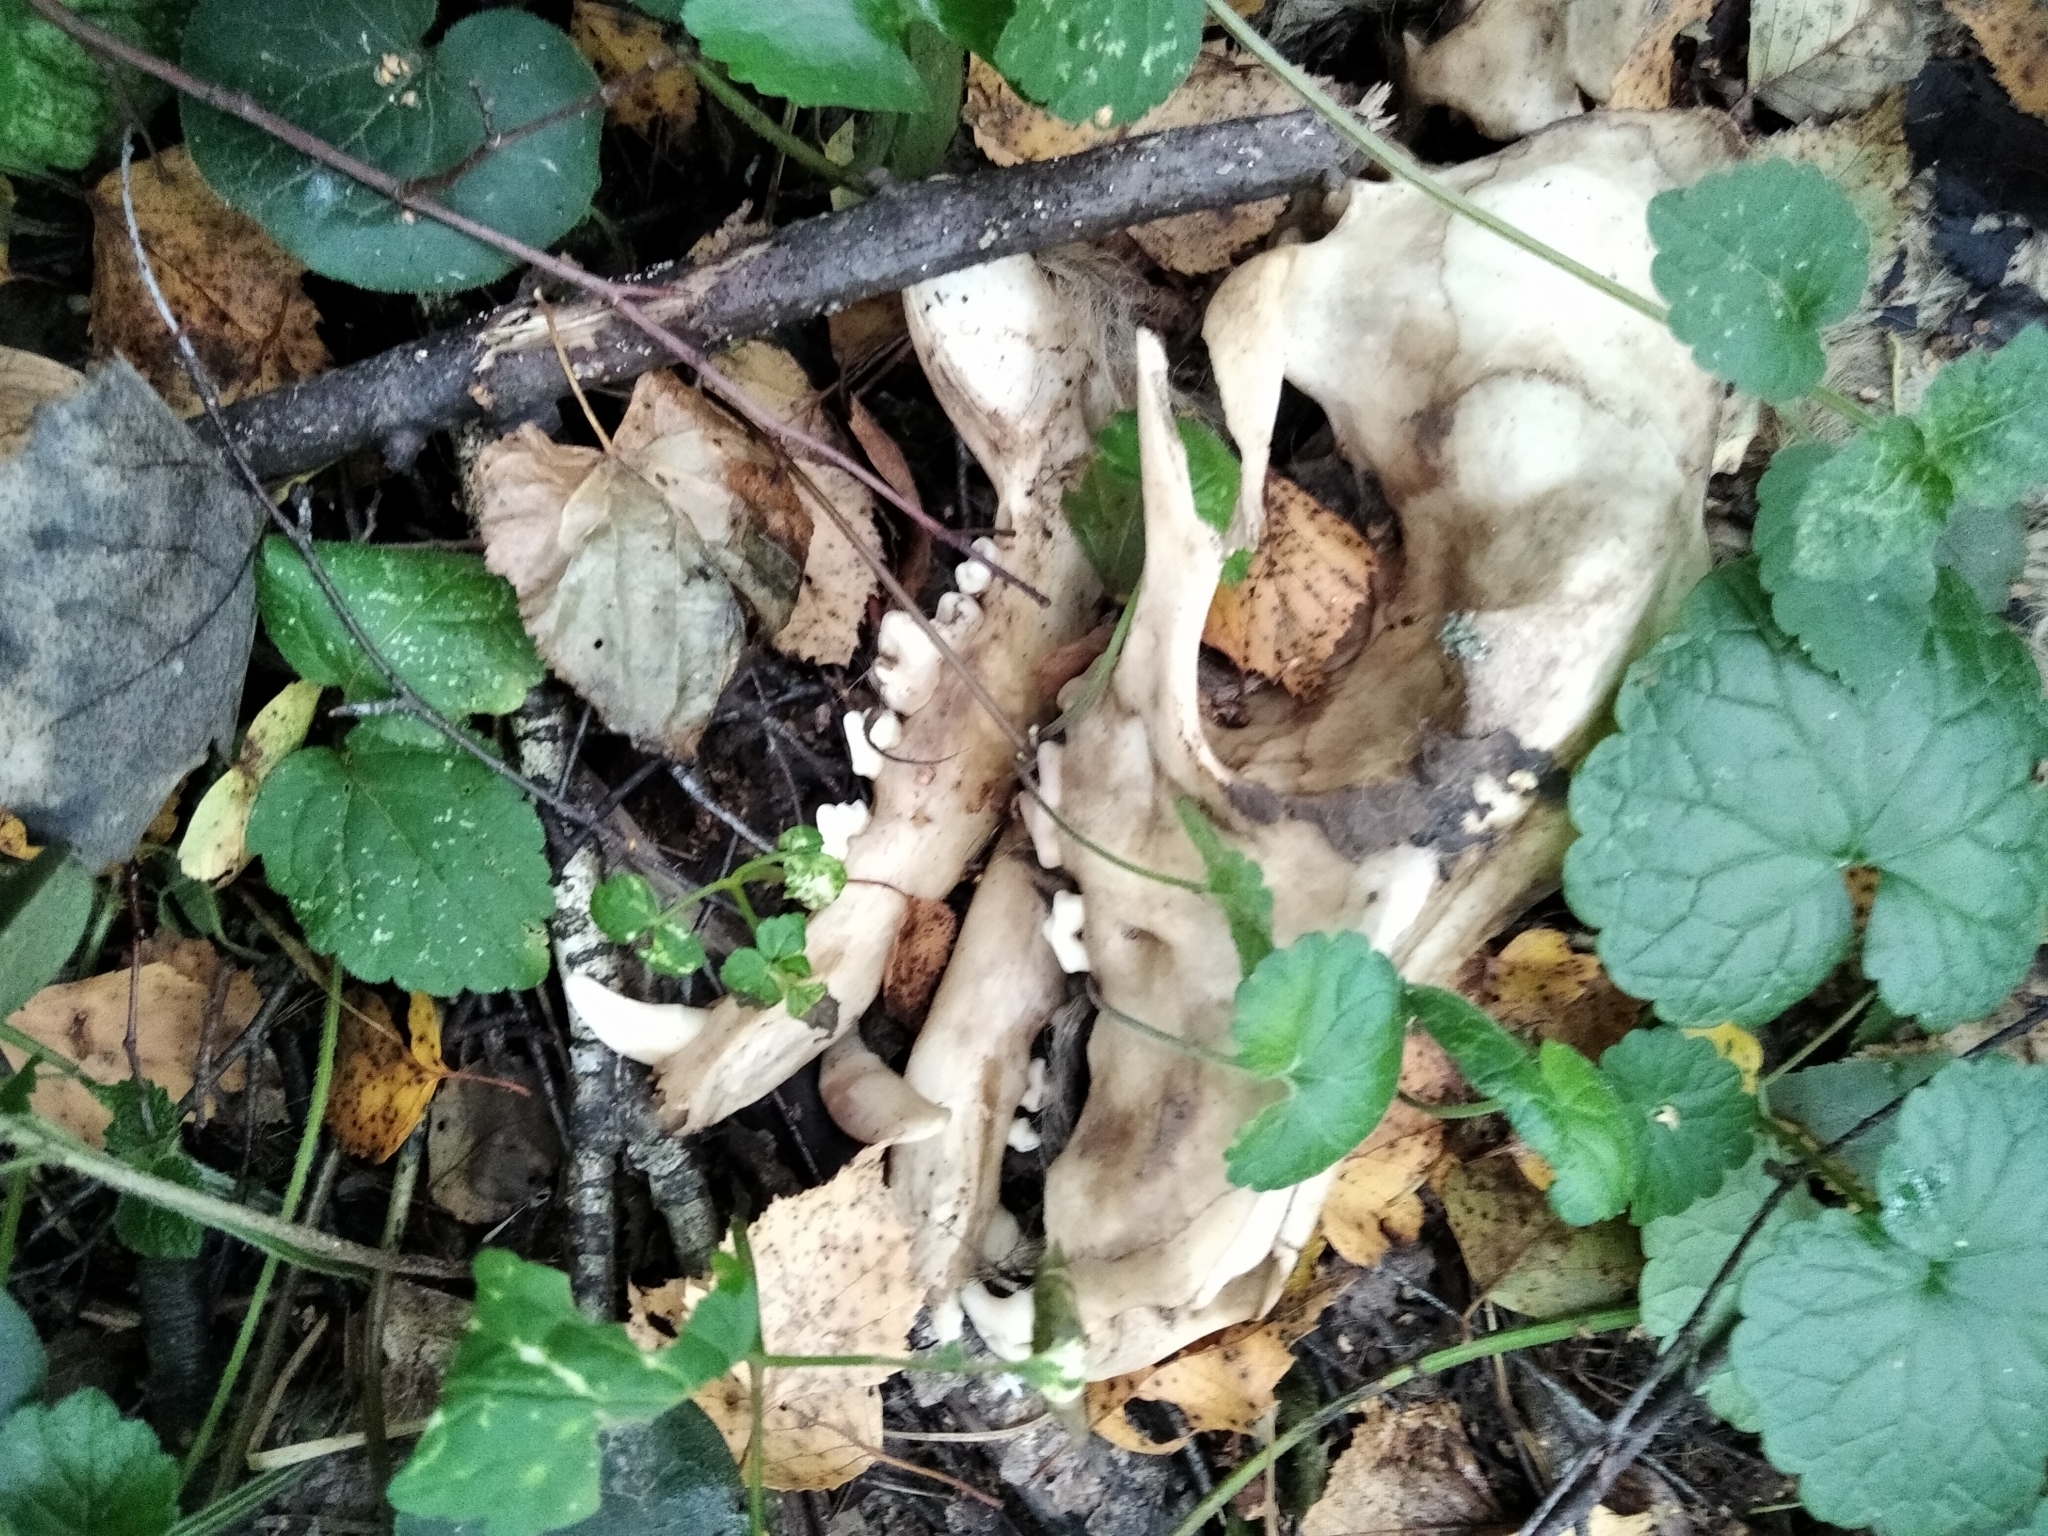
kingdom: Animalia
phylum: Chordata
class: Mammalia
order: Carnivora
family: Canidae
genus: Canis
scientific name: Canis lupus
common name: Gray wolf
